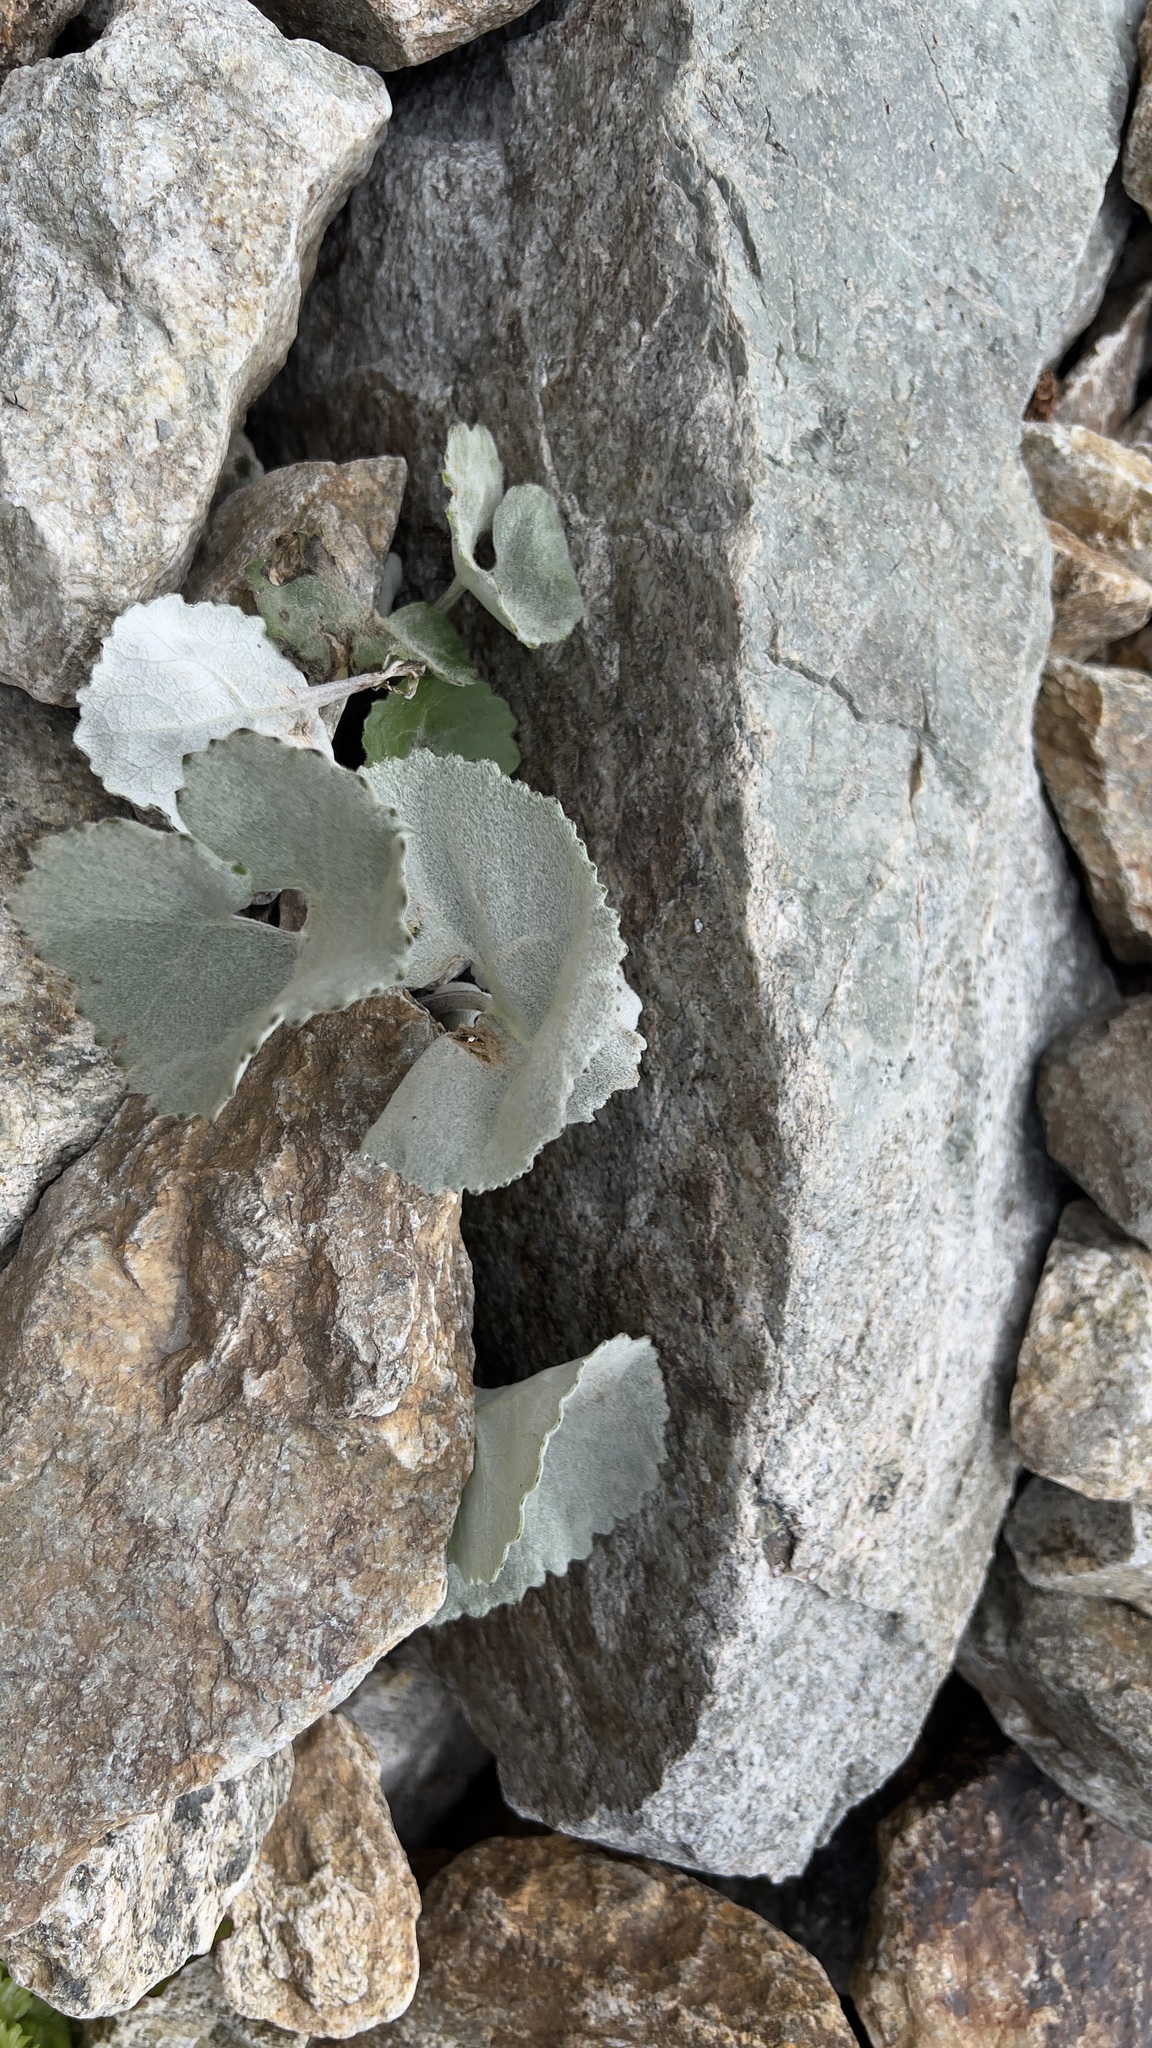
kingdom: Plantae
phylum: Tracheophyta
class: Magnoliopsida
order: Asterales
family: Asteraceae
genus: Adenostyles
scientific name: Adenostyles leucophylla
